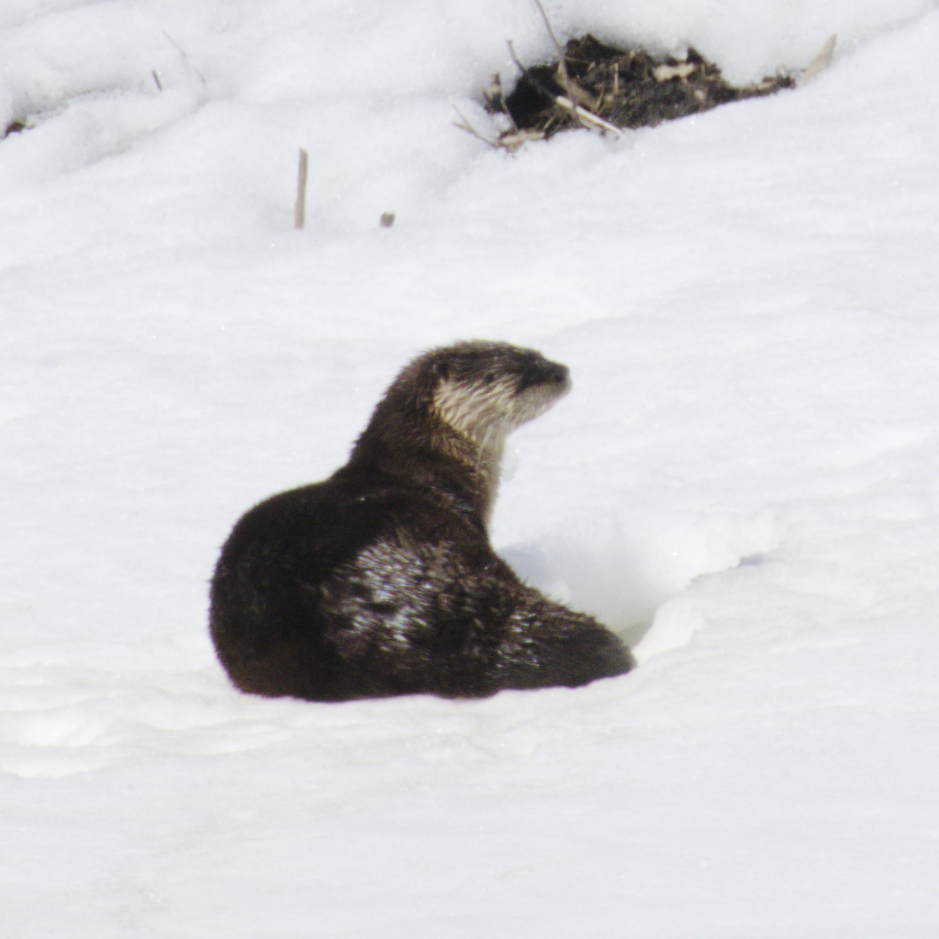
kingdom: Animalia
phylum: Chordata
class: Mammalia
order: Carnivora
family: Mustelidae
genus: Lontra
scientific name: Lontra canadensis
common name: North american river otter
